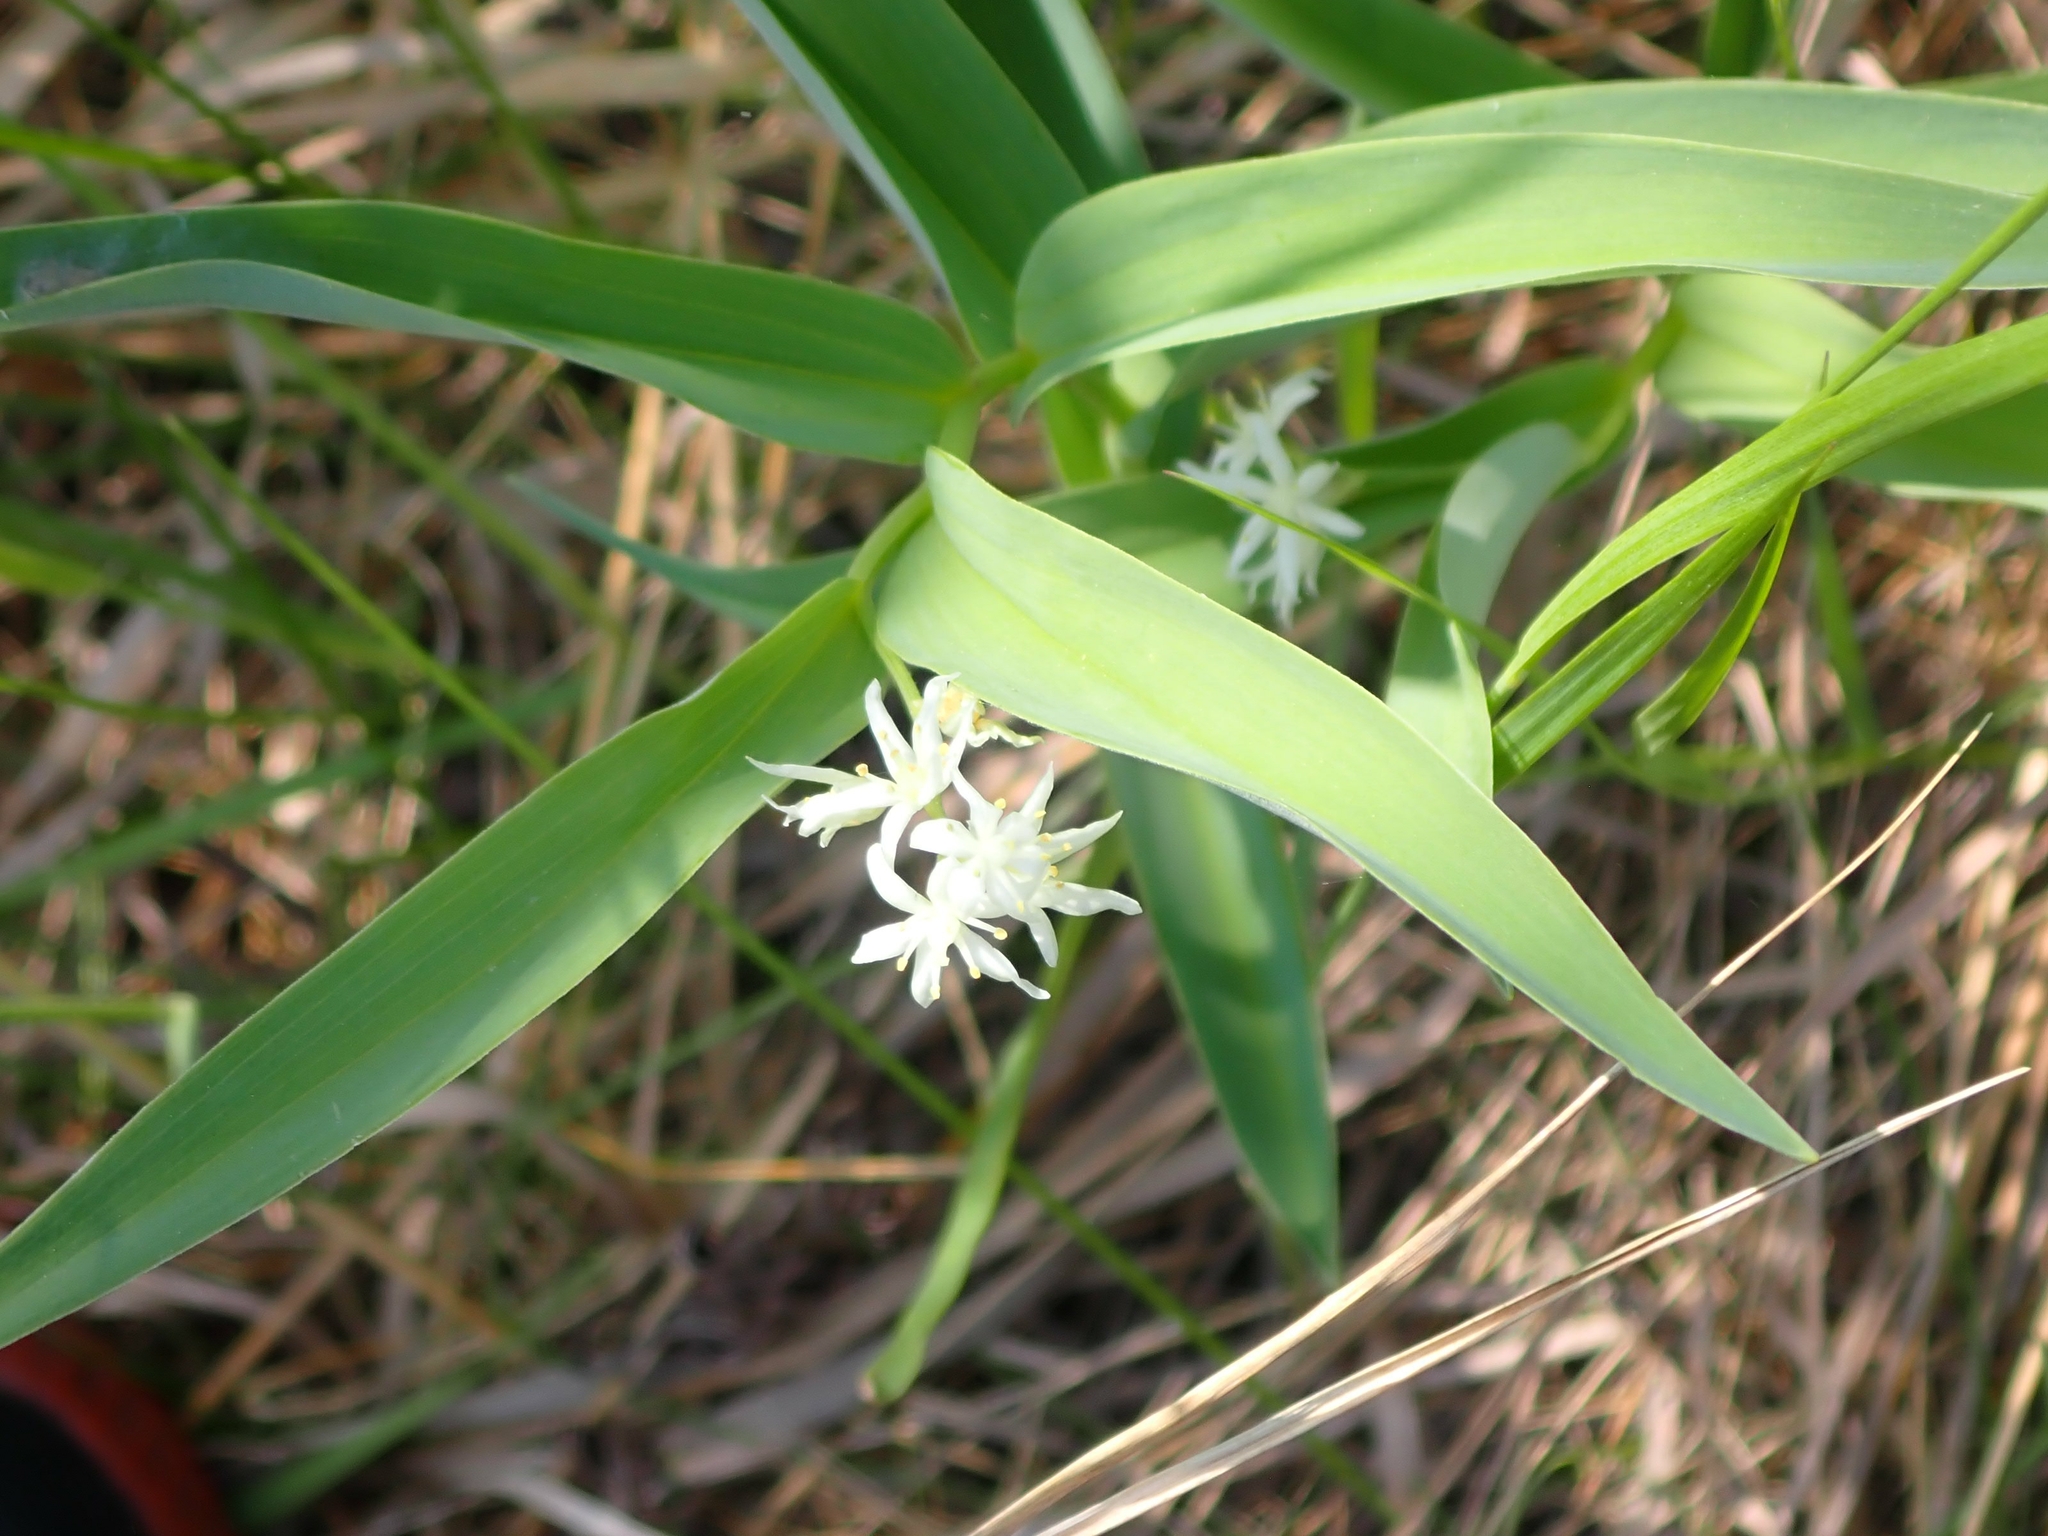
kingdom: Plantae
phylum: Tracheophyta
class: Liliopsida
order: Asparagales
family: Asparagaceae
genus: Maianthemum
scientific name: Maianthemum stellatum
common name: Little false solomon's seal
